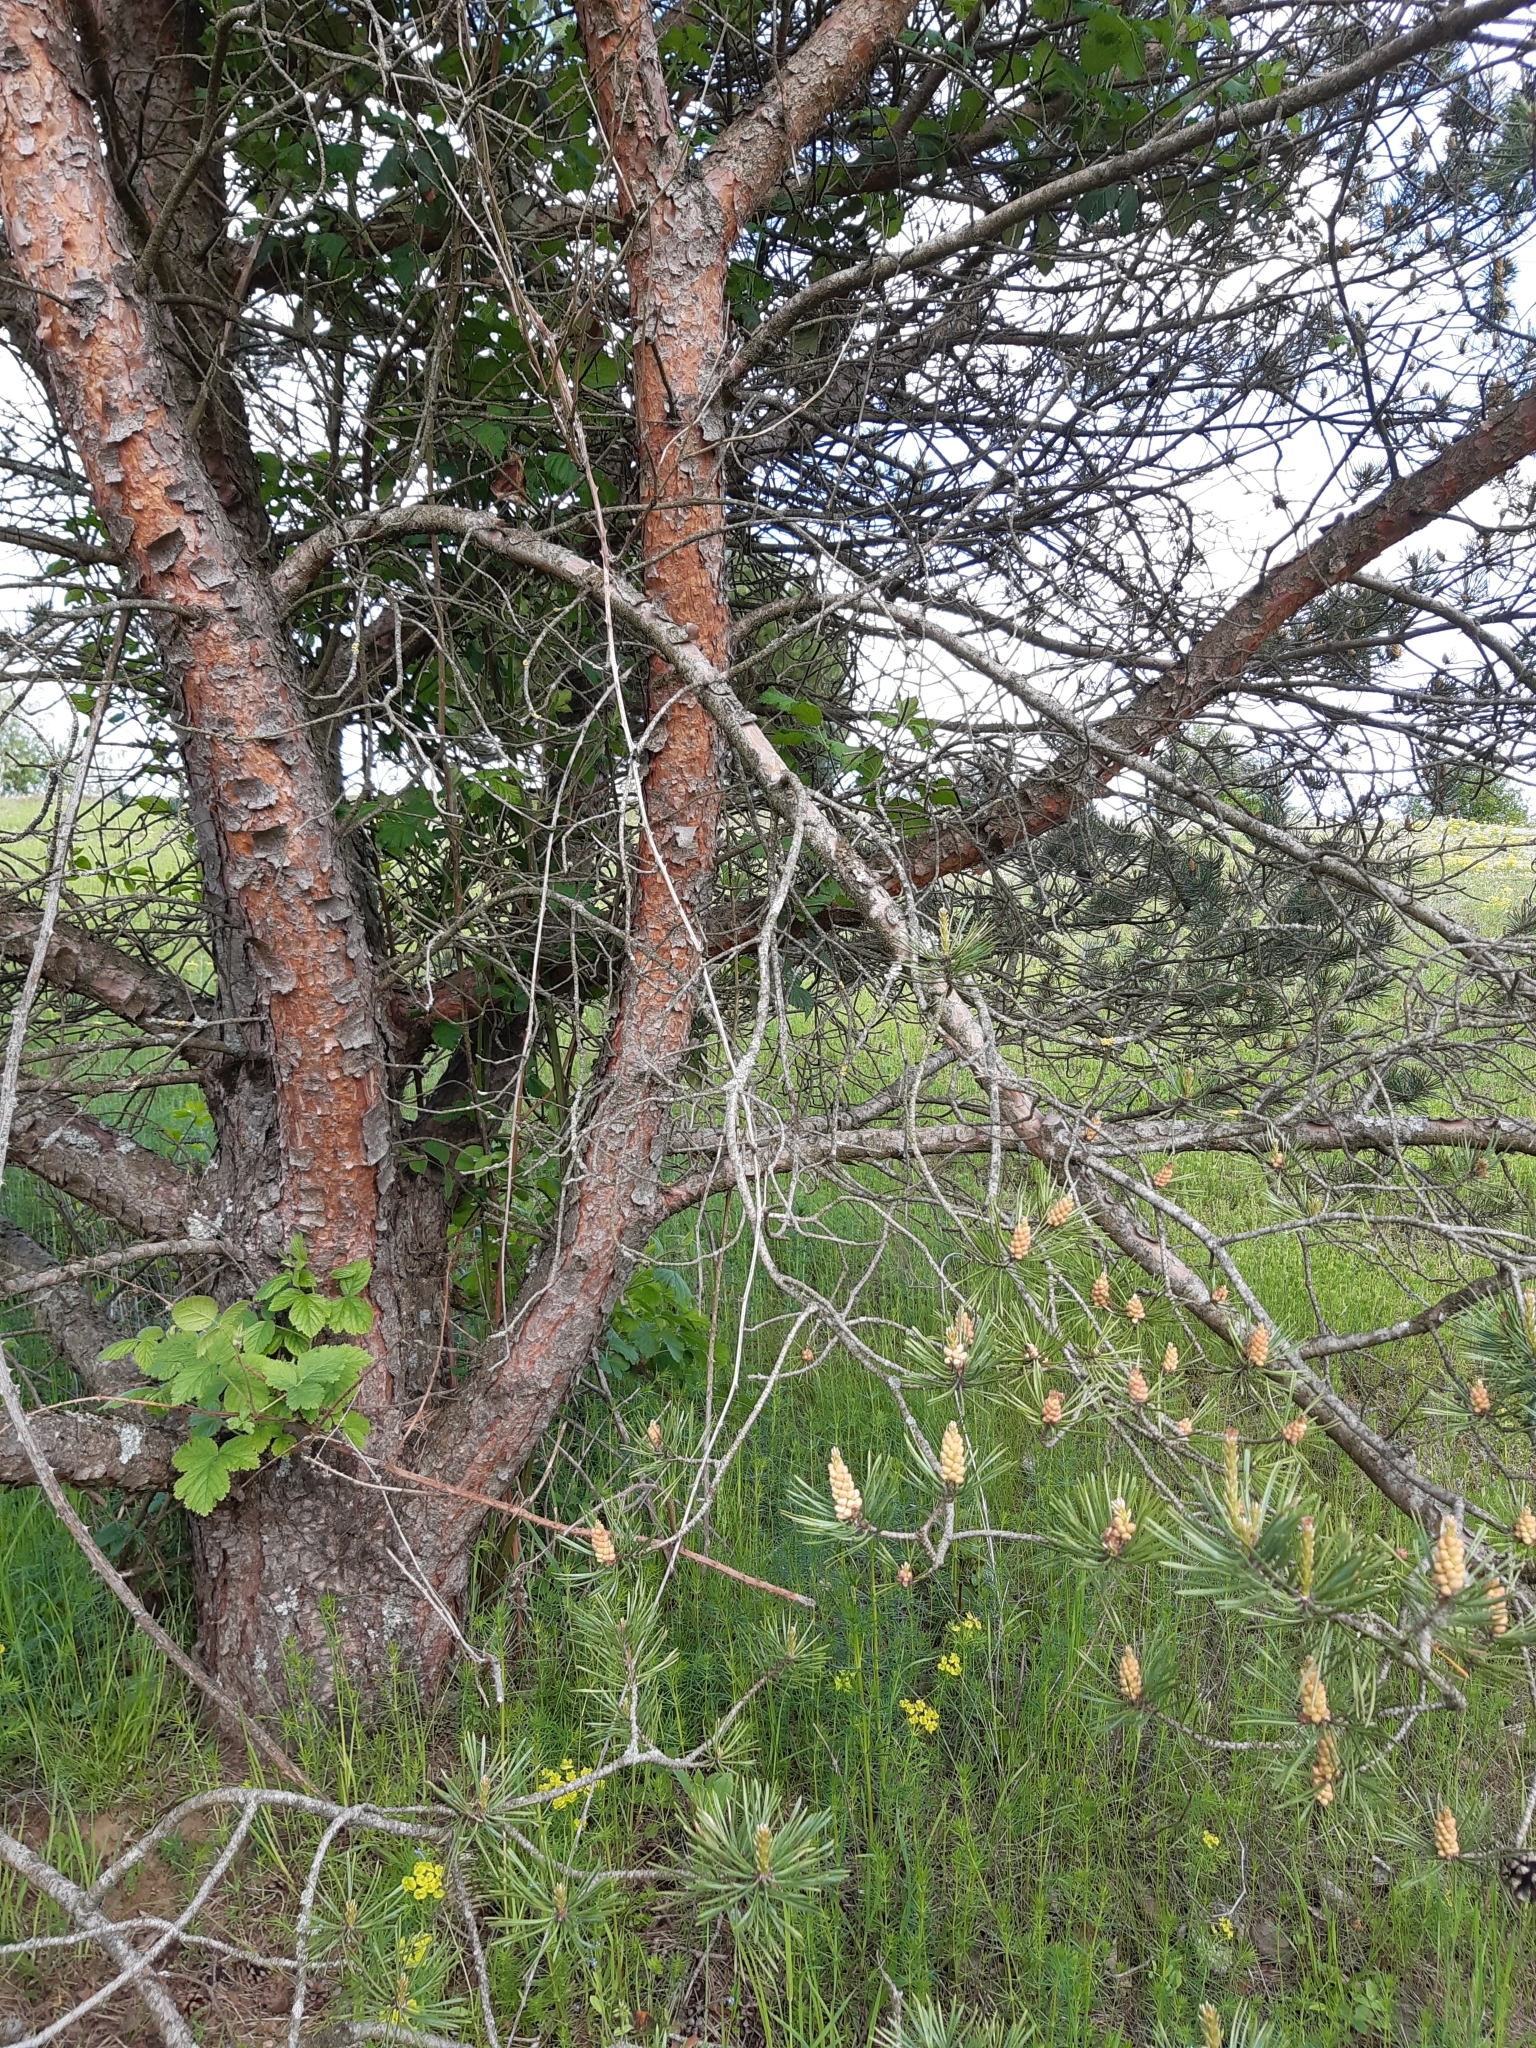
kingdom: Plantae
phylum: Tracheophyta
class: Pinopsida
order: Pinales
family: Pinaceae
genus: Pinus
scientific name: Pinus sylvestris
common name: Scots pine
